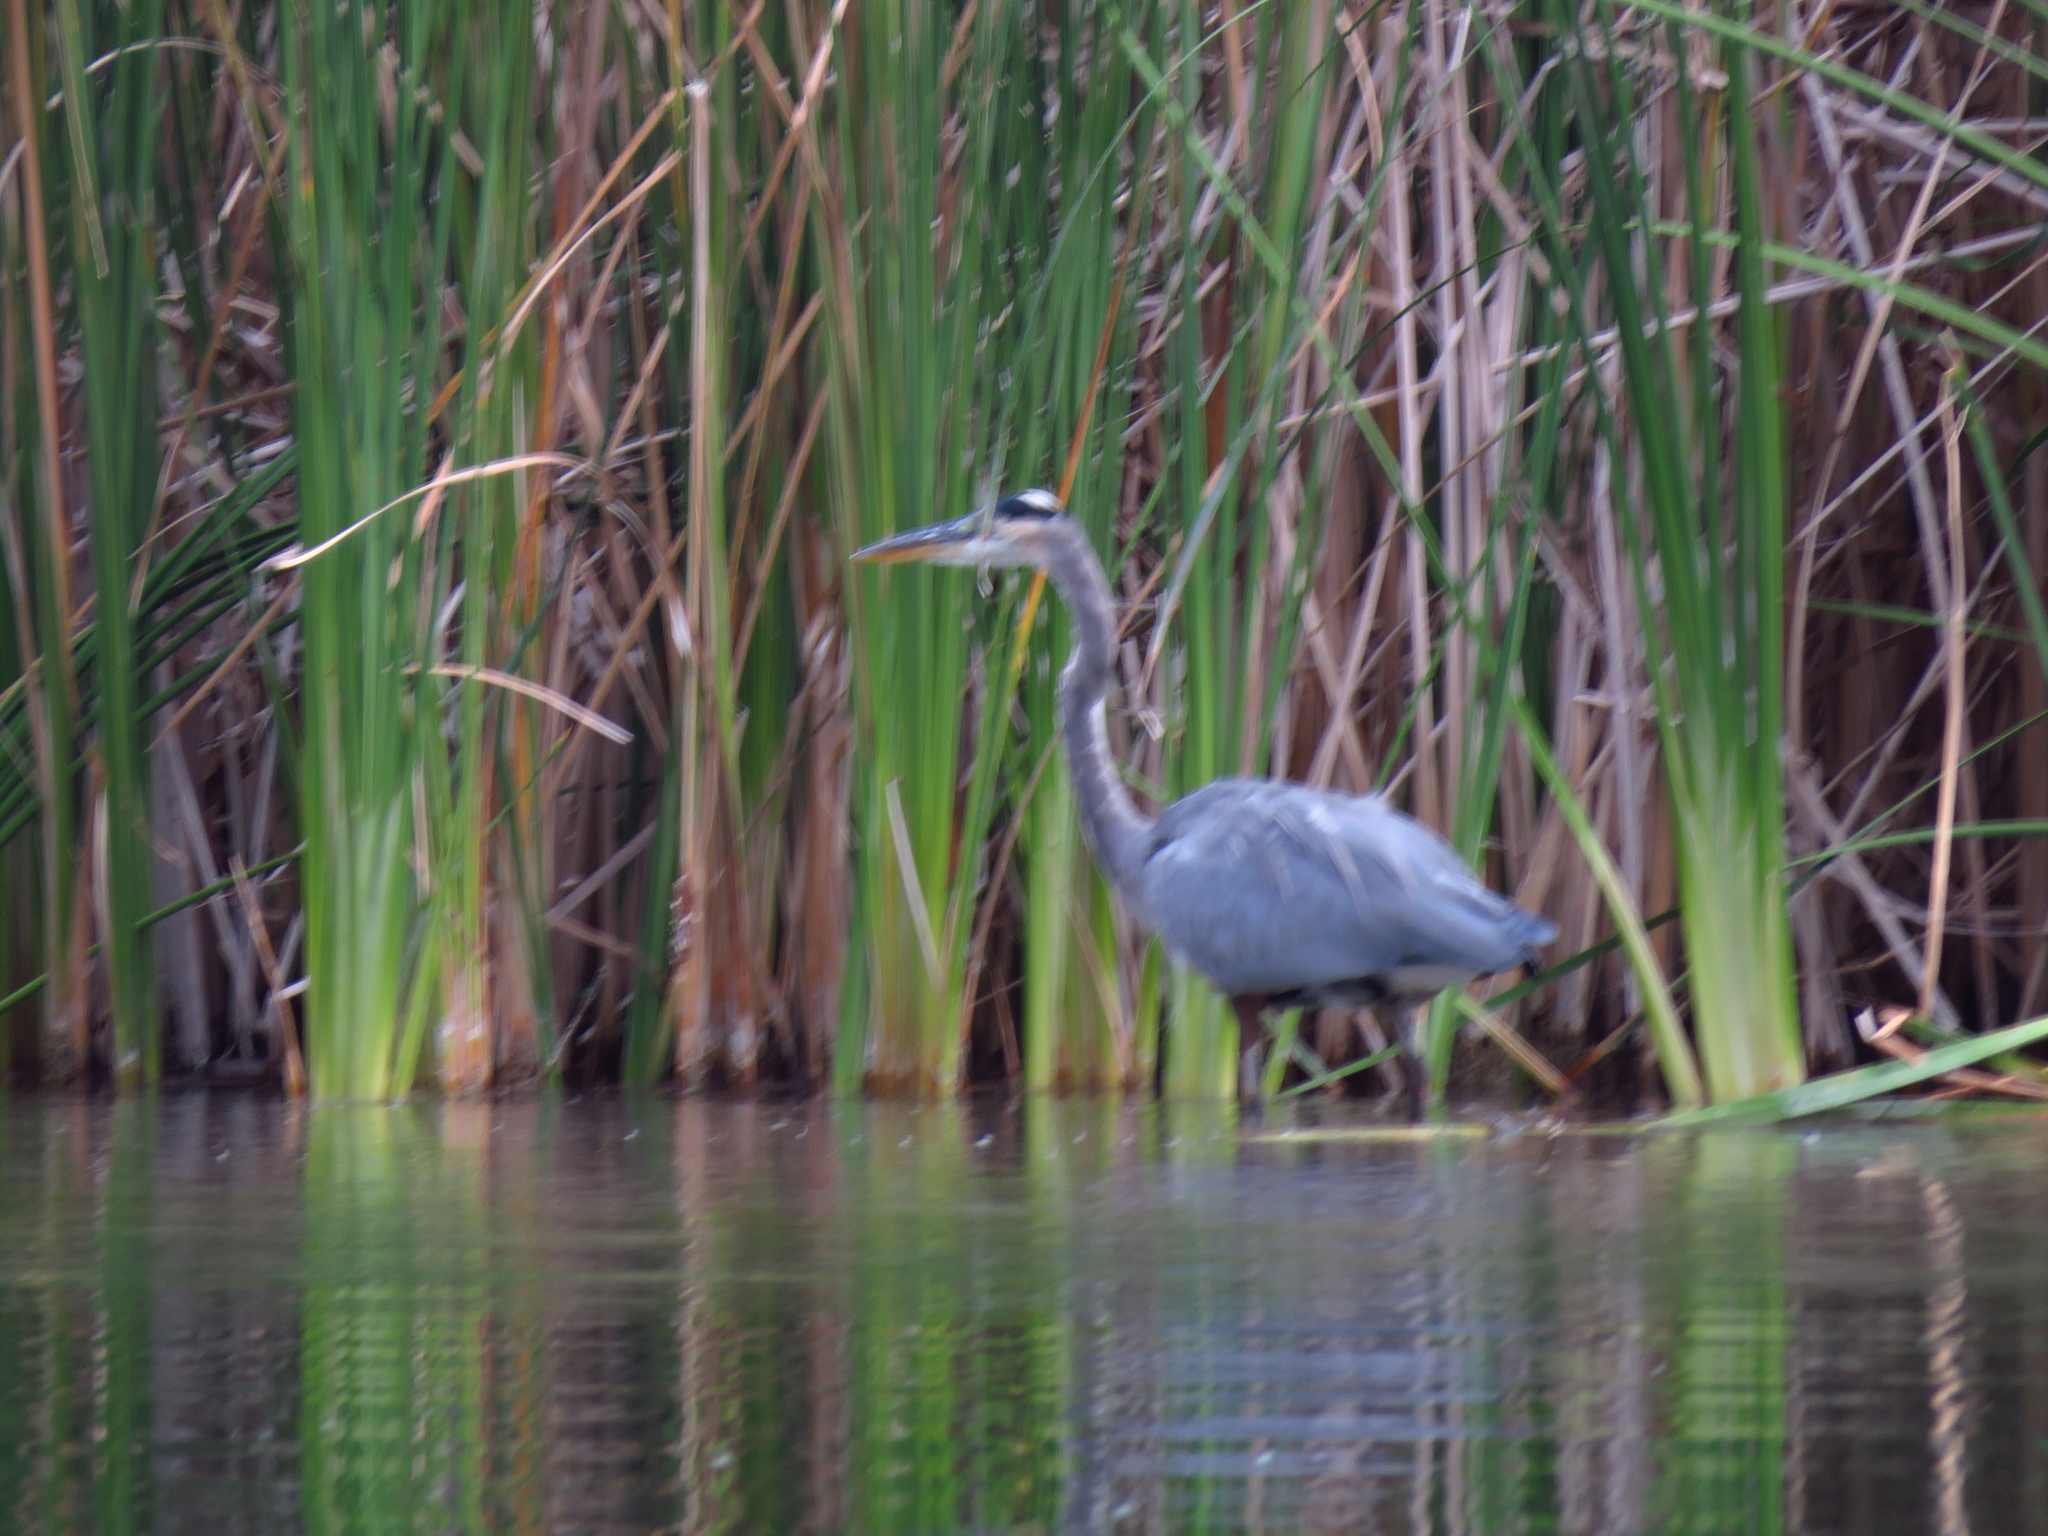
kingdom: Animalia
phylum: Chordata
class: Aves
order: Pelecaniformes
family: Ardeidae
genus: Ardea
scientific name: Ardea herodias
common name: Great blue heron
